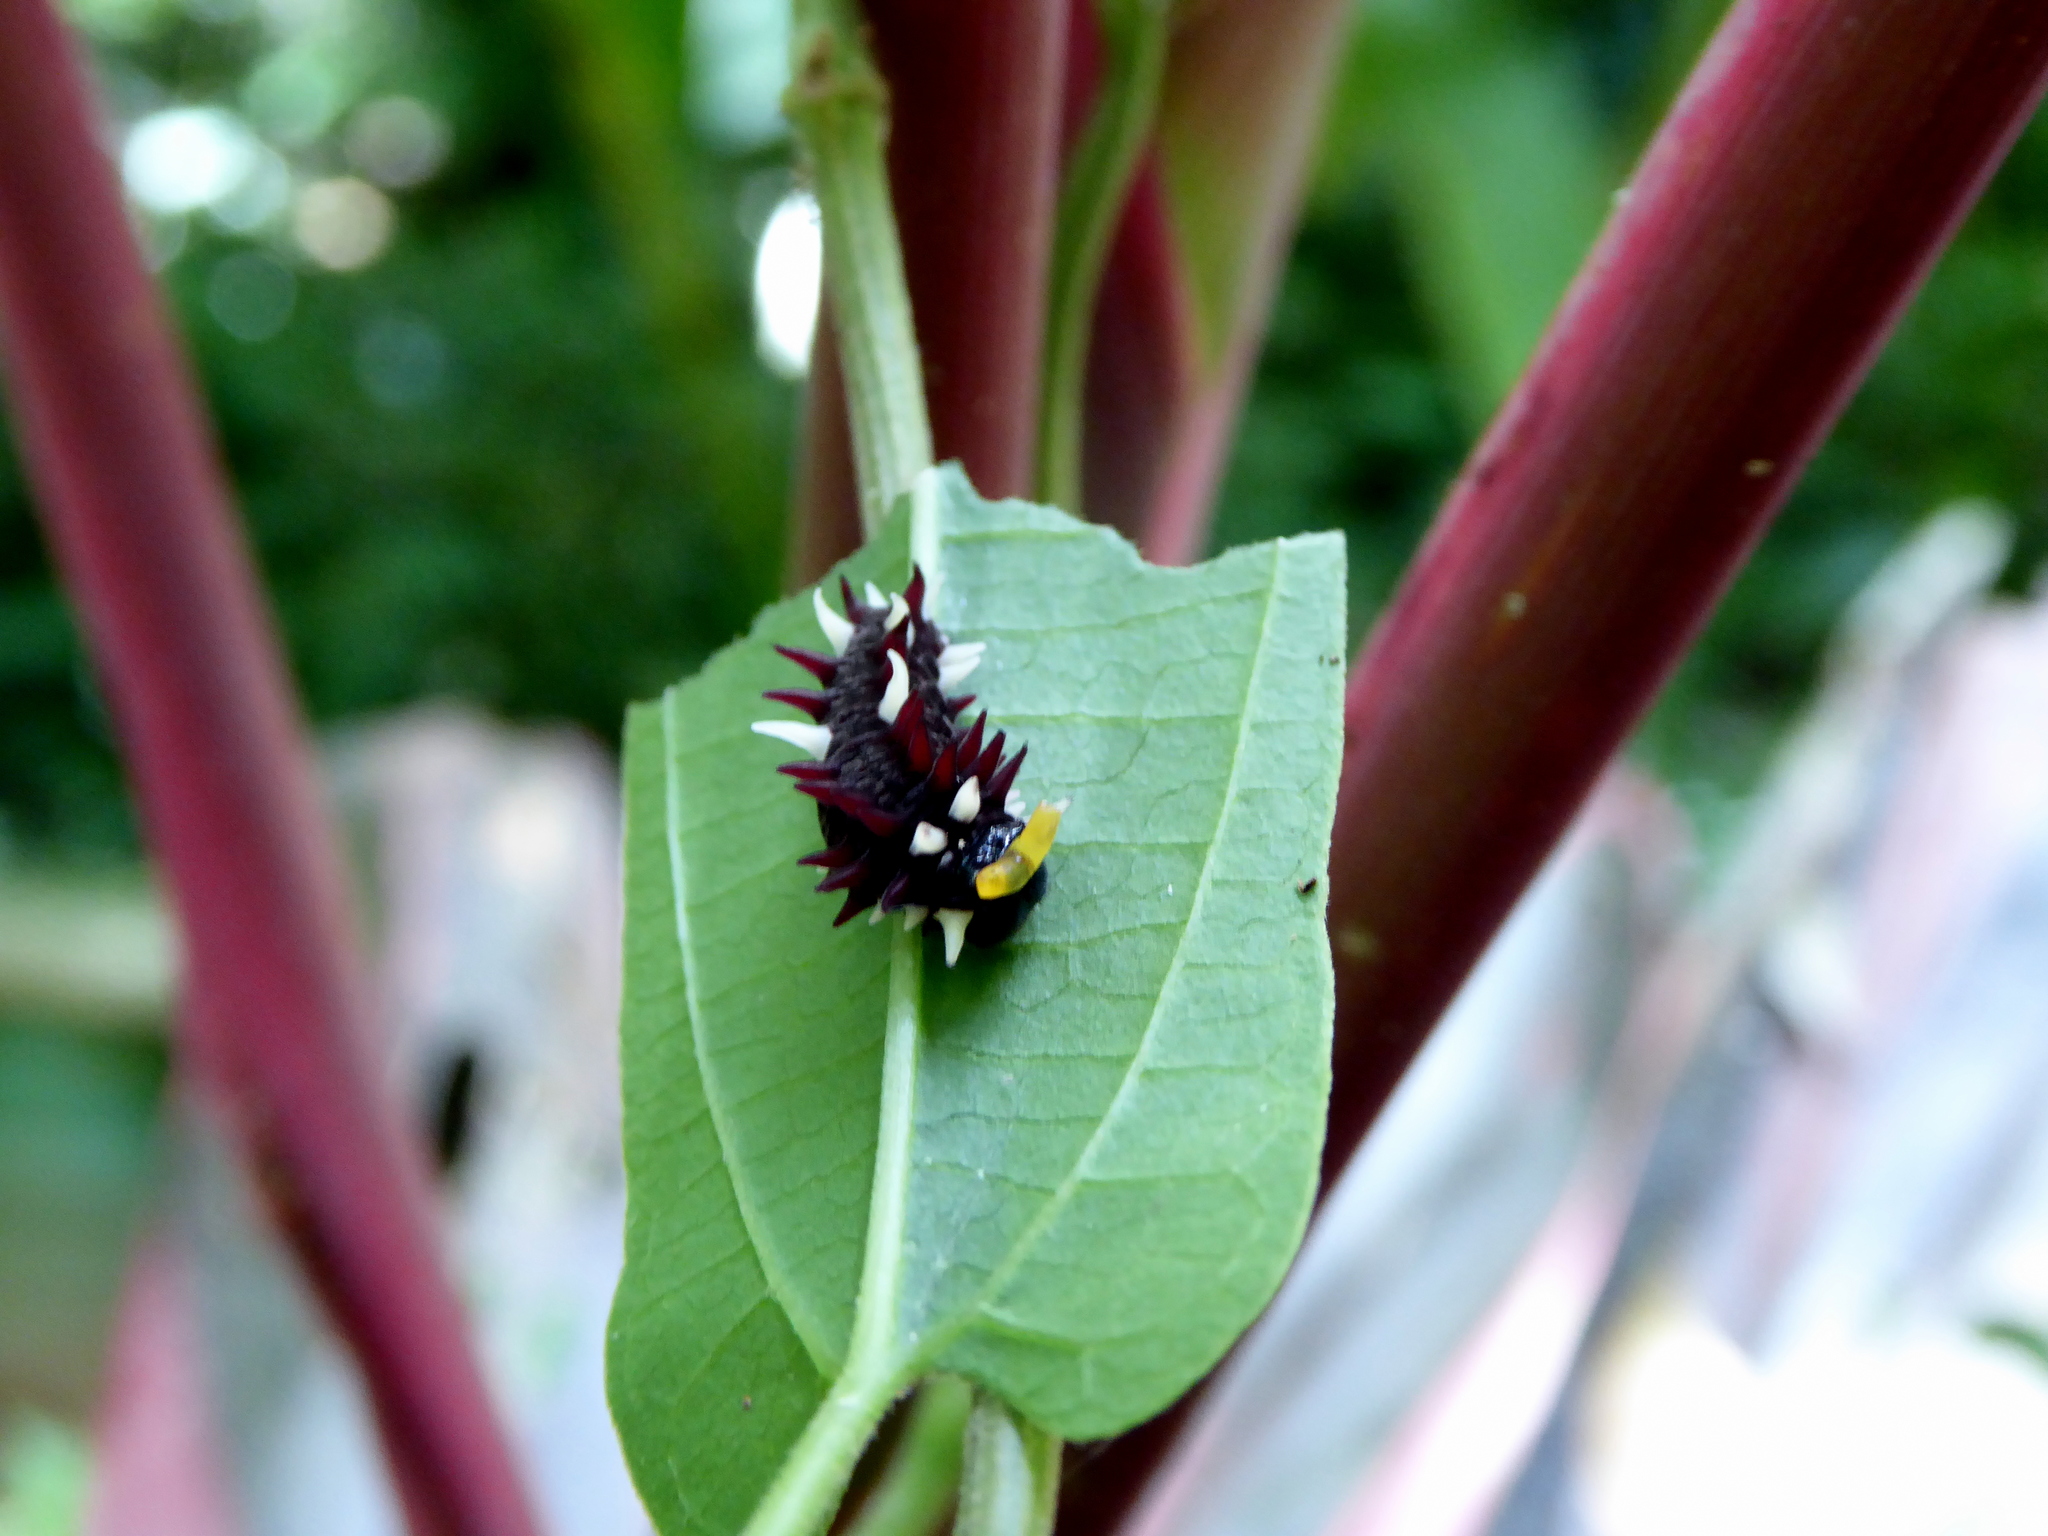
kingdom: Animalia
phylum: Arthropoda
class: Insecta
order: Lepidoptera
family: Papilionidae
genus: Parides
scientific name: Parides photinus
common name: Pink-spotted cattleheart
